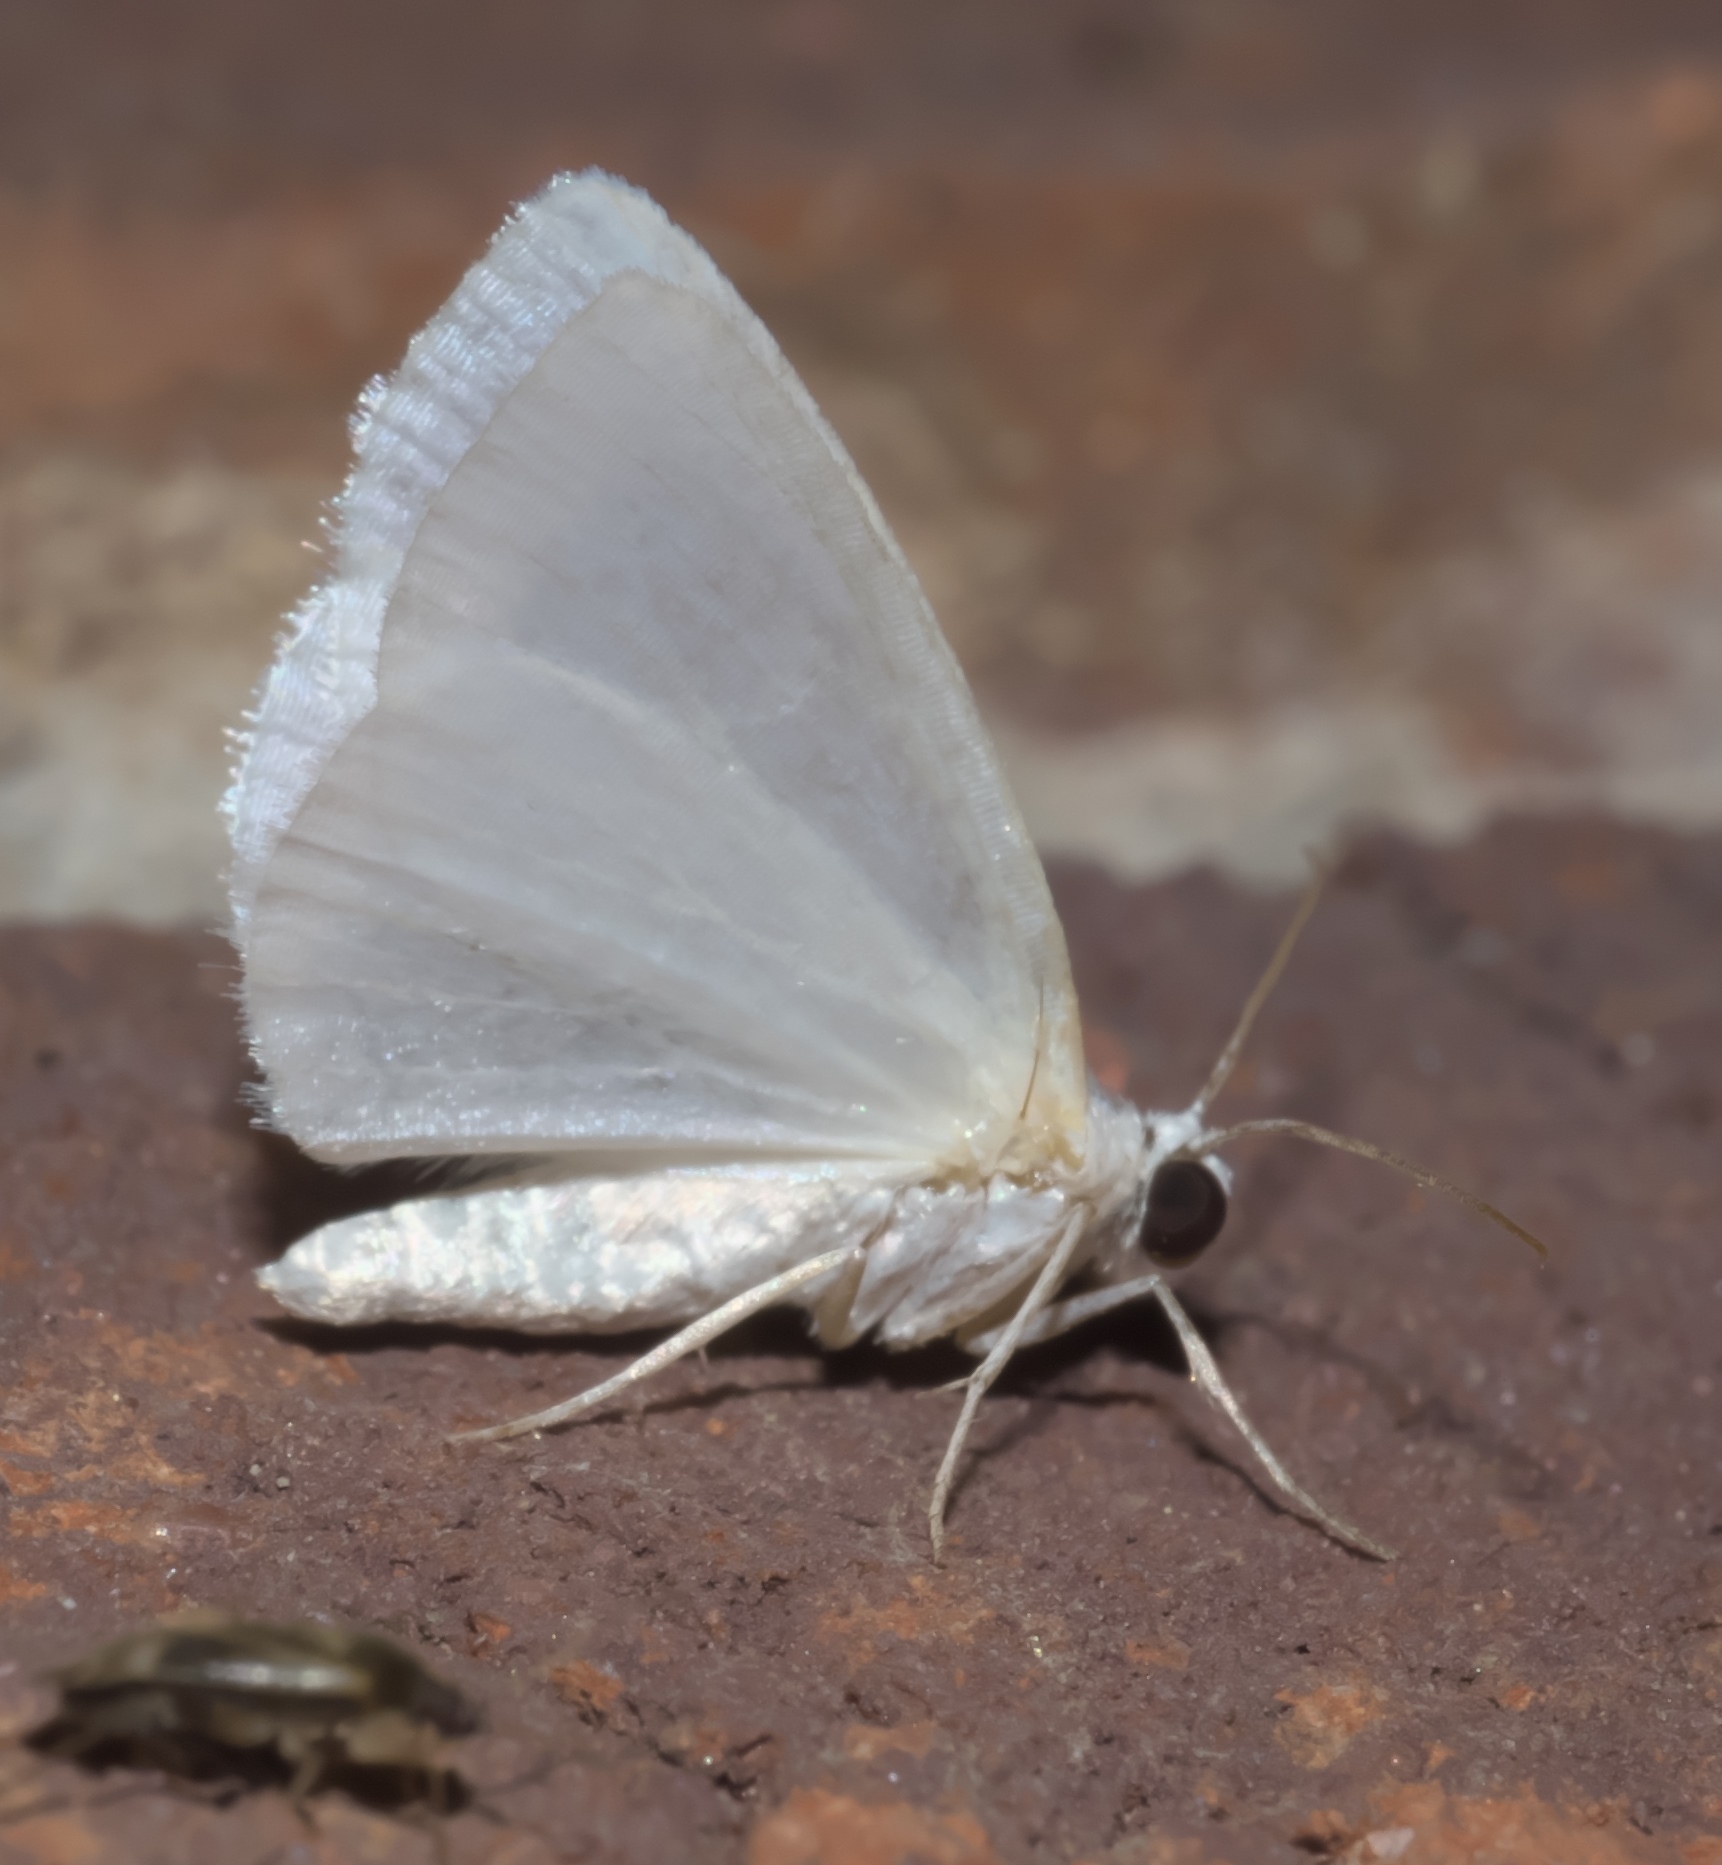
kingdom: Animalia
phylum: Arthropoda
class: Insecta
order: Lepidoptera
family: Geometridae
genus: Lomographa
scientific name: Lomographa vestaliata
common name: White spring moth
